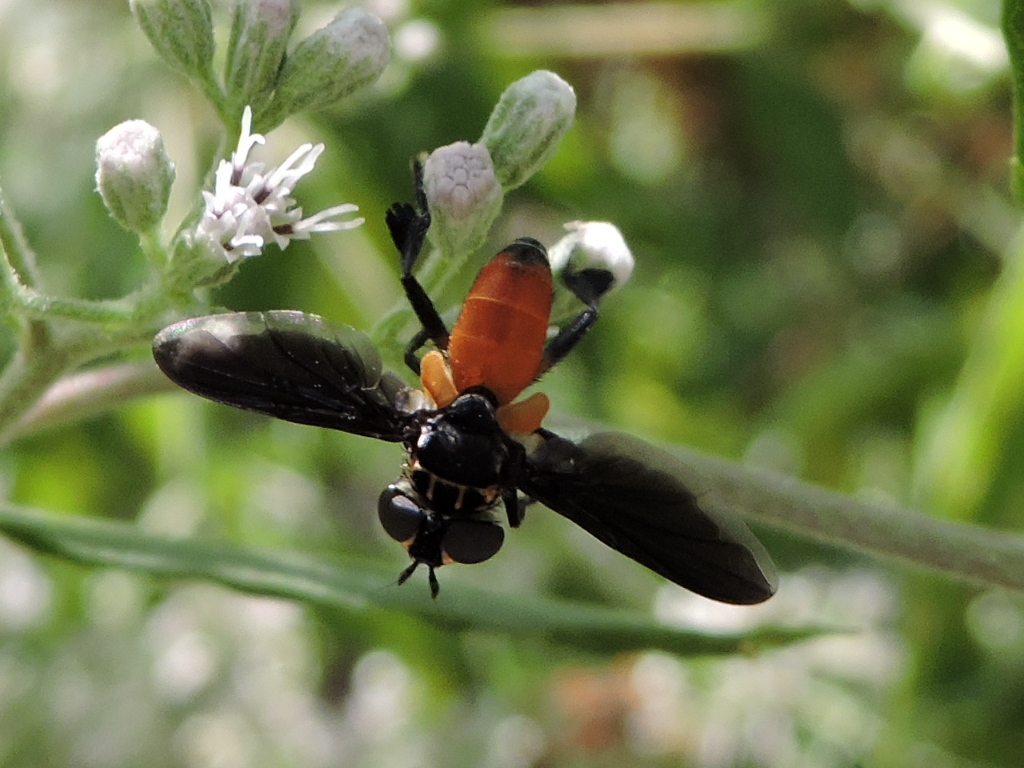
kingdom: Animalia
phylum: Arthropoda
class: Insecta
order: Diptera
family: Tachinidae
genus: Trichopoda
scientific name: Trichopoda pennipes
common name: Tachinid fly
